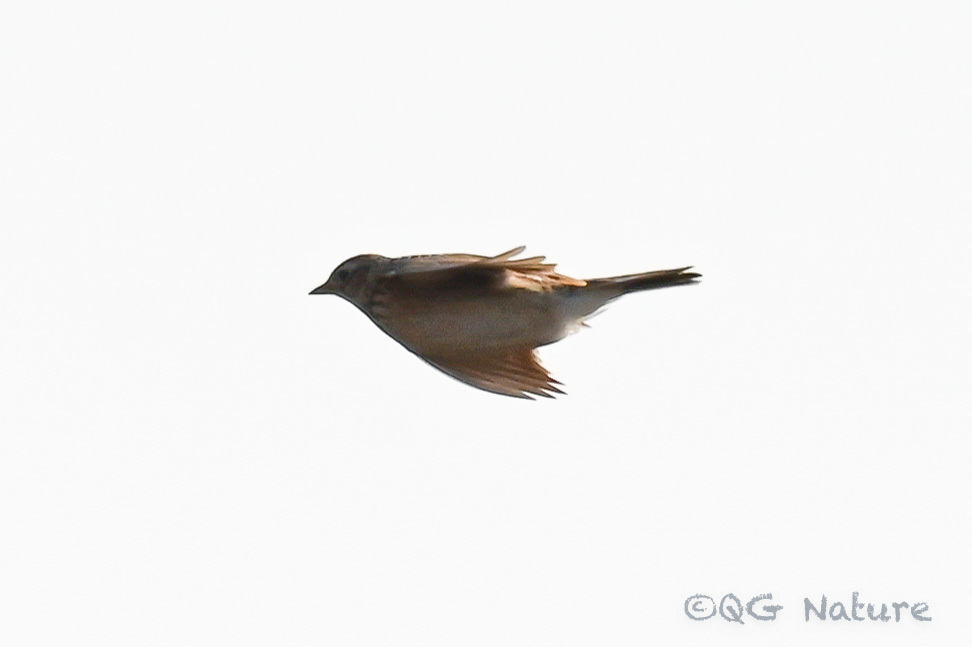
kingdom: Animalia
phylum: Chordata
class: Aves
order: Passeriformes
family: Alaudidae
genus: Alauda
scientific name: Alauda arvensis
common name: Eurasian skylark
